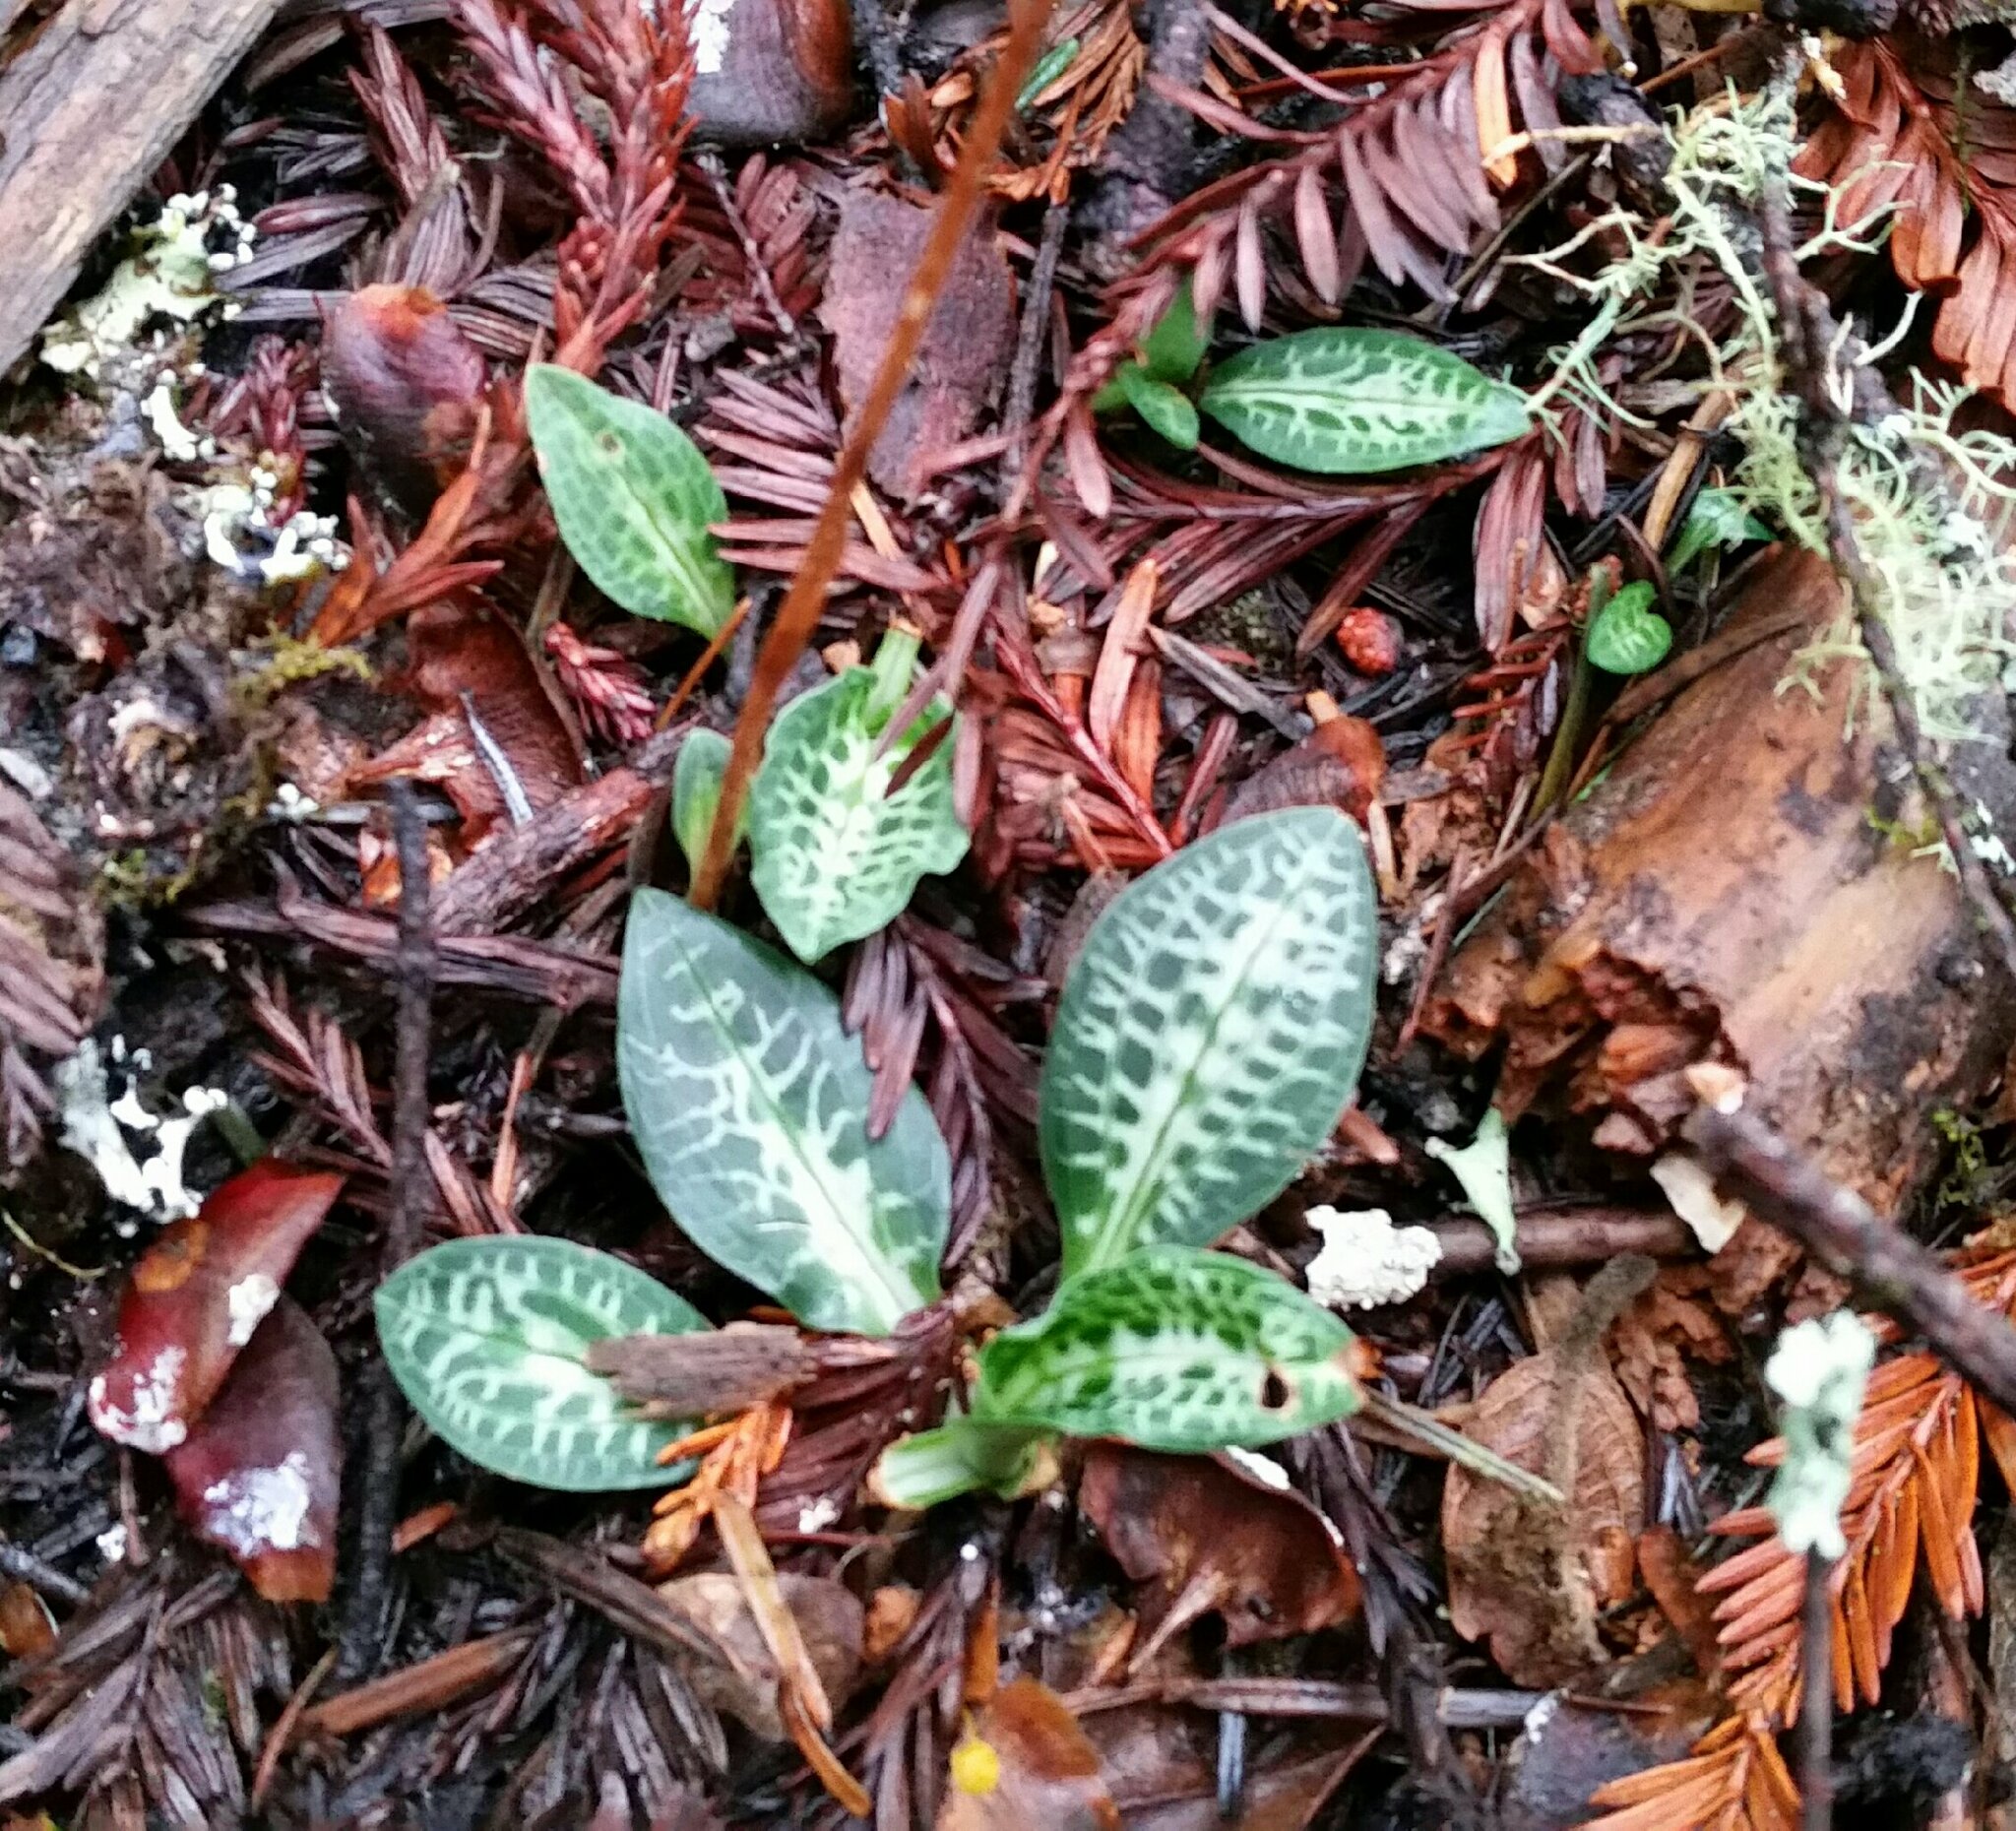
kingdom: Plantae
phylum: Tracheophyta
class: Liliopsida
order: Asparagales
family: Orchidaceae
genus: Goodyera
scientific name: Goodyera oblongifolia
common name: Giant rattlesnake-plantain
